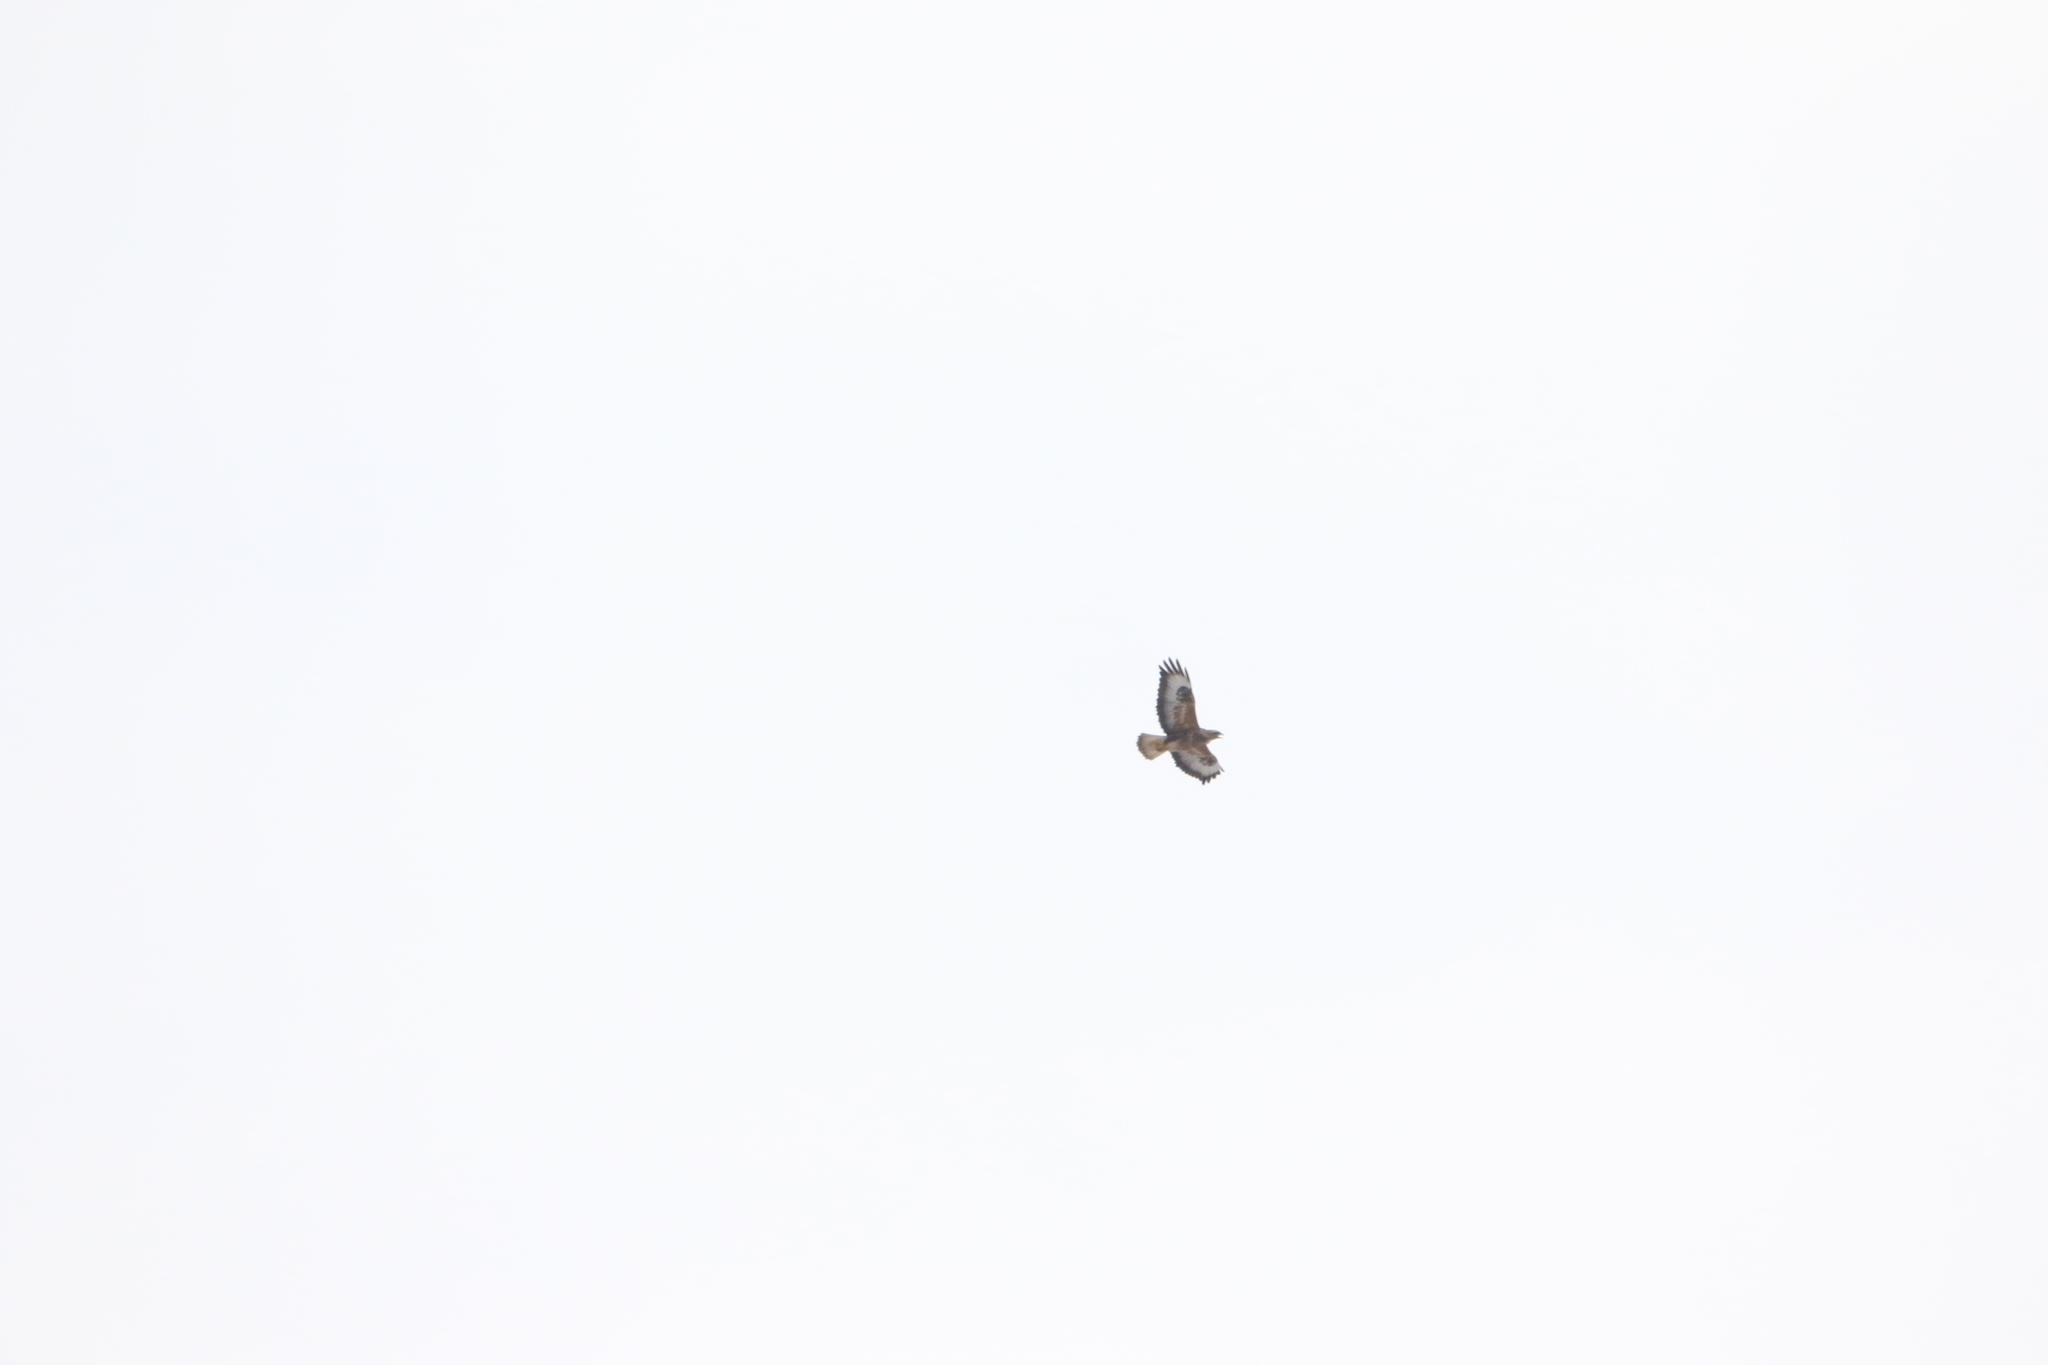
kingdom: Animalia
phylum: Chordata
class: Aves
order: Accipitriformes
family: Accipitridae
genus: Buteo
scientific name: Buteo buteo
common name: Common buzzard
